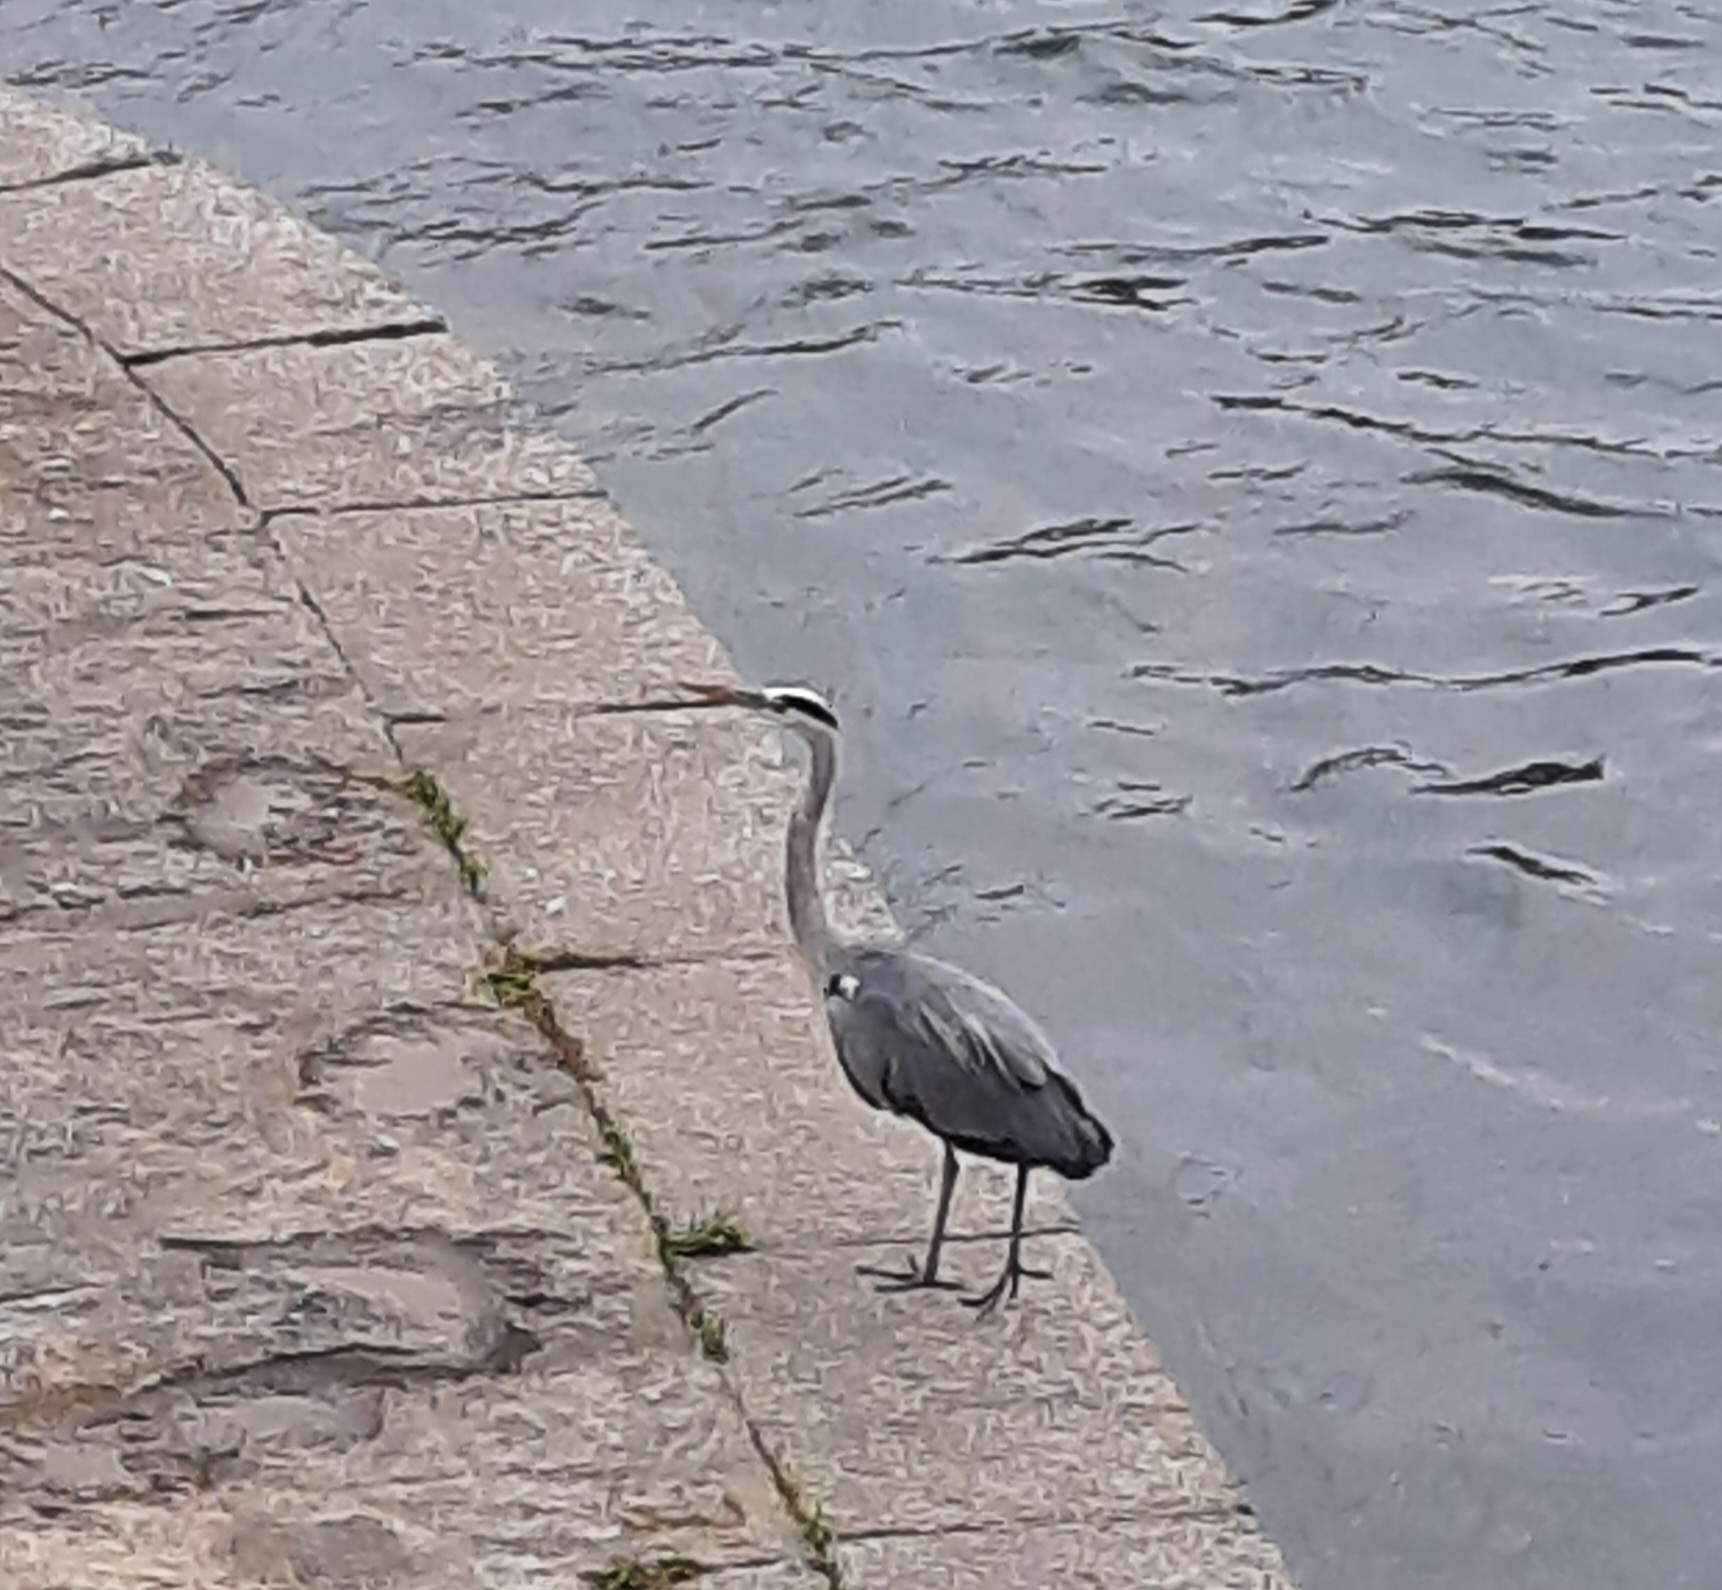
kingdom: Animalia
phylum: Chordata
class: Aves
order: Pelecaniformes
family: Ardeidae
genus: Ardea
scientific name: Ardea cinerea
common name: Grey heron
